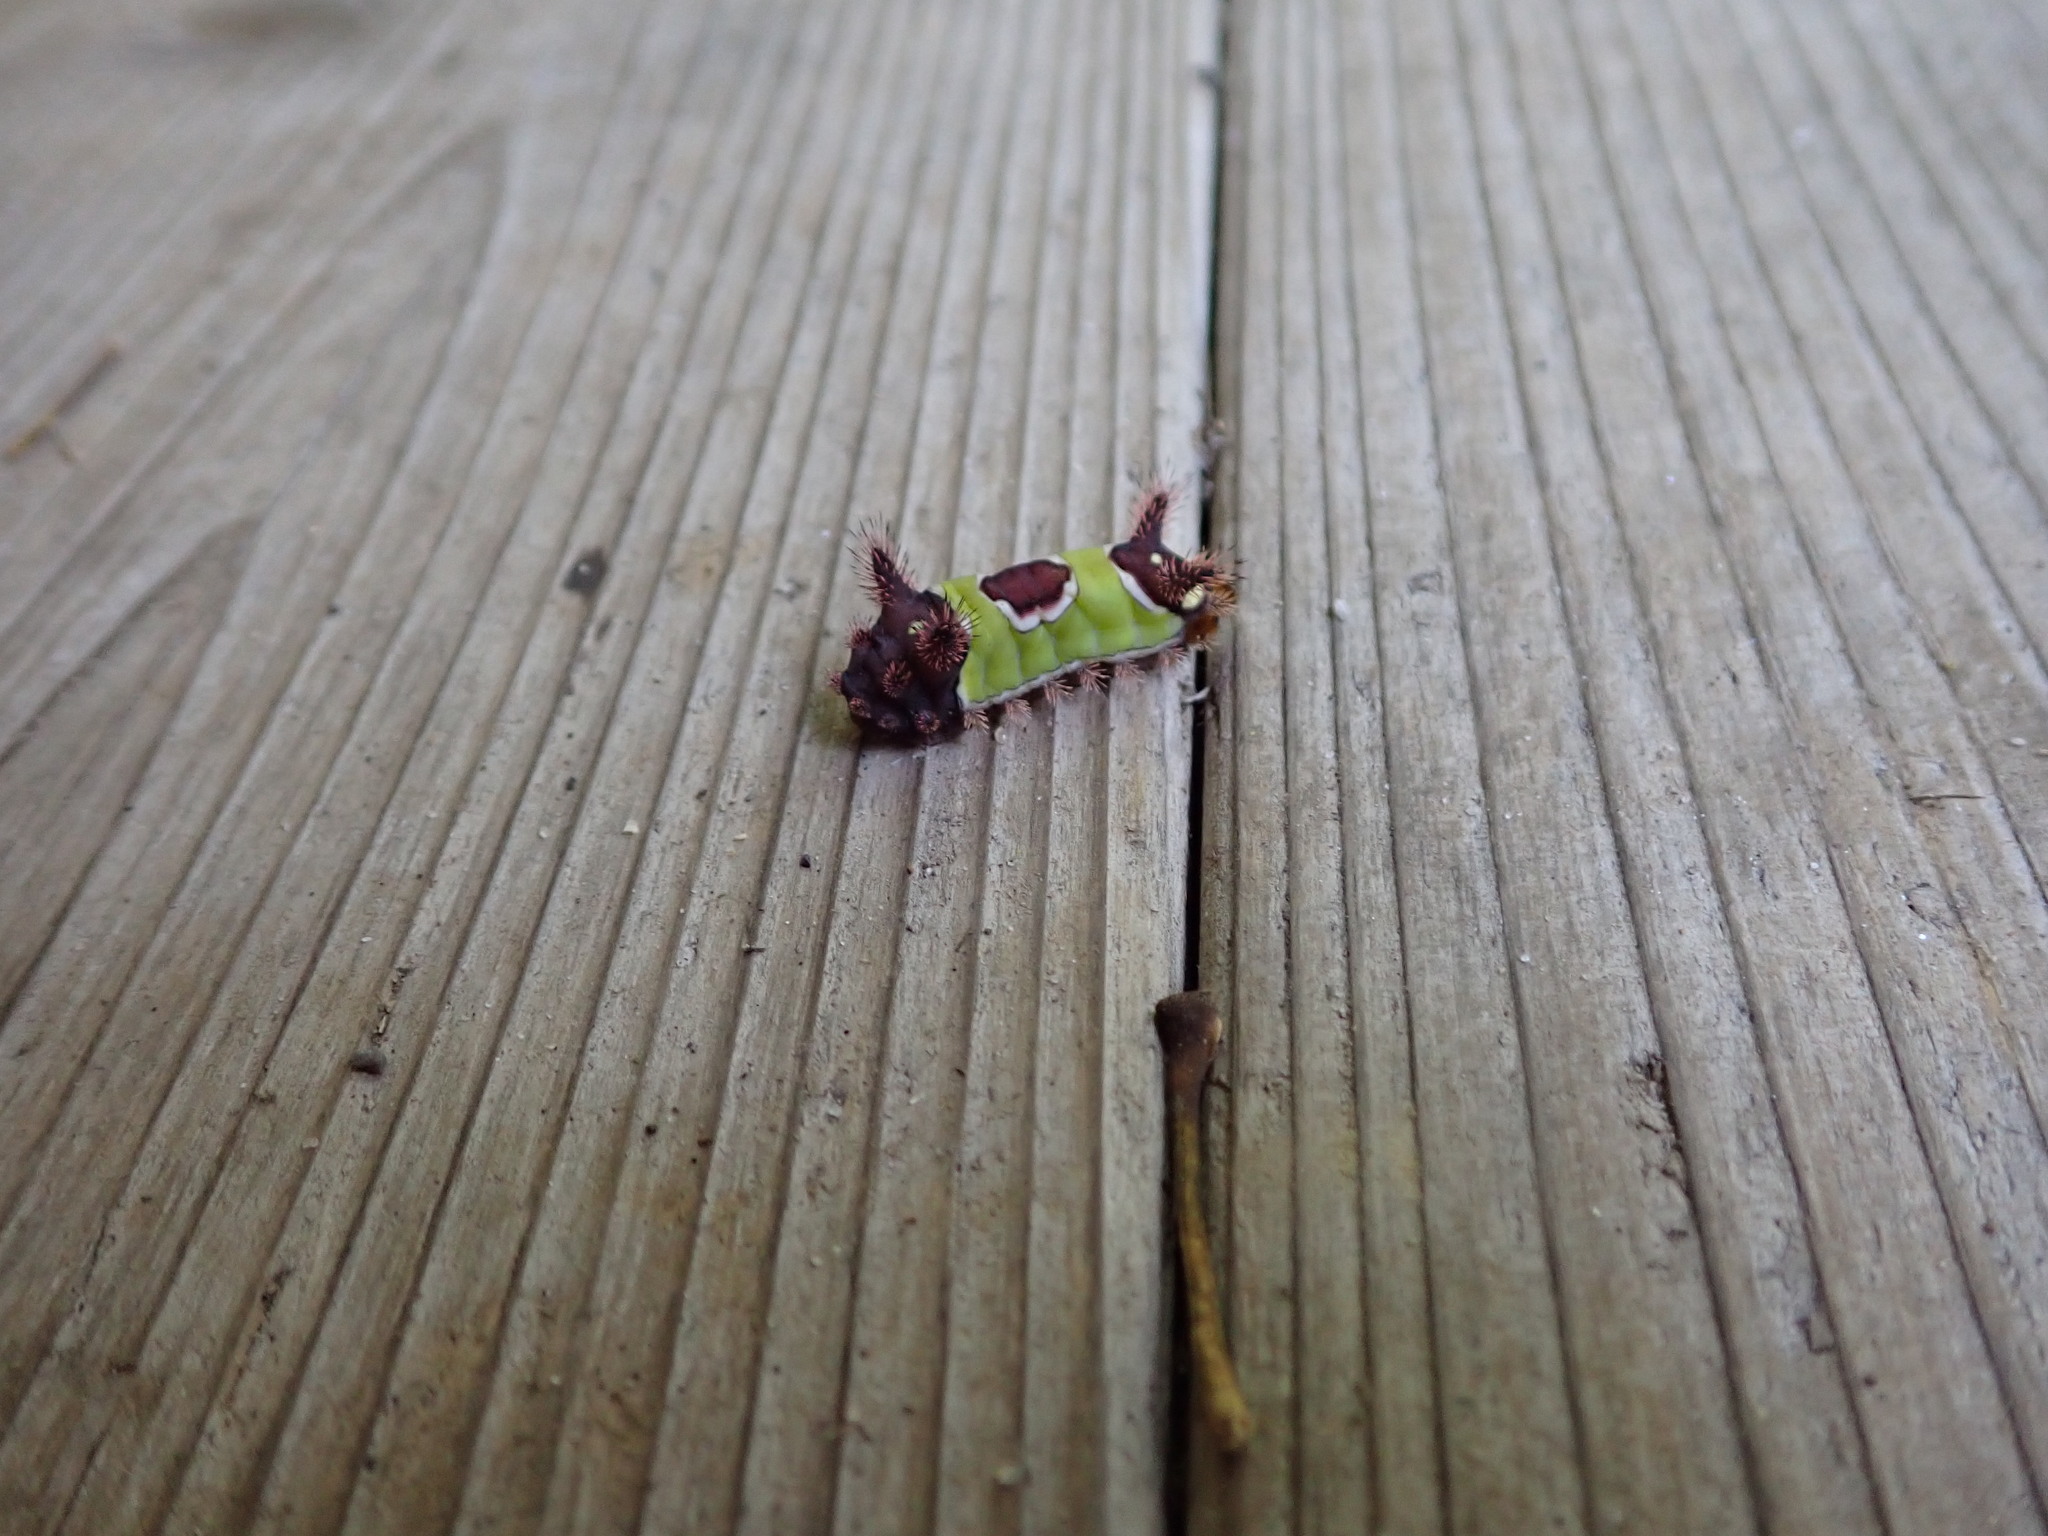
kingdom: Animalia
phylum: Arthropoda
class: Insecta
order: Lepidoptera
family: Limacodidae
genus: Acharia
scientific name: Acharia stimulea
